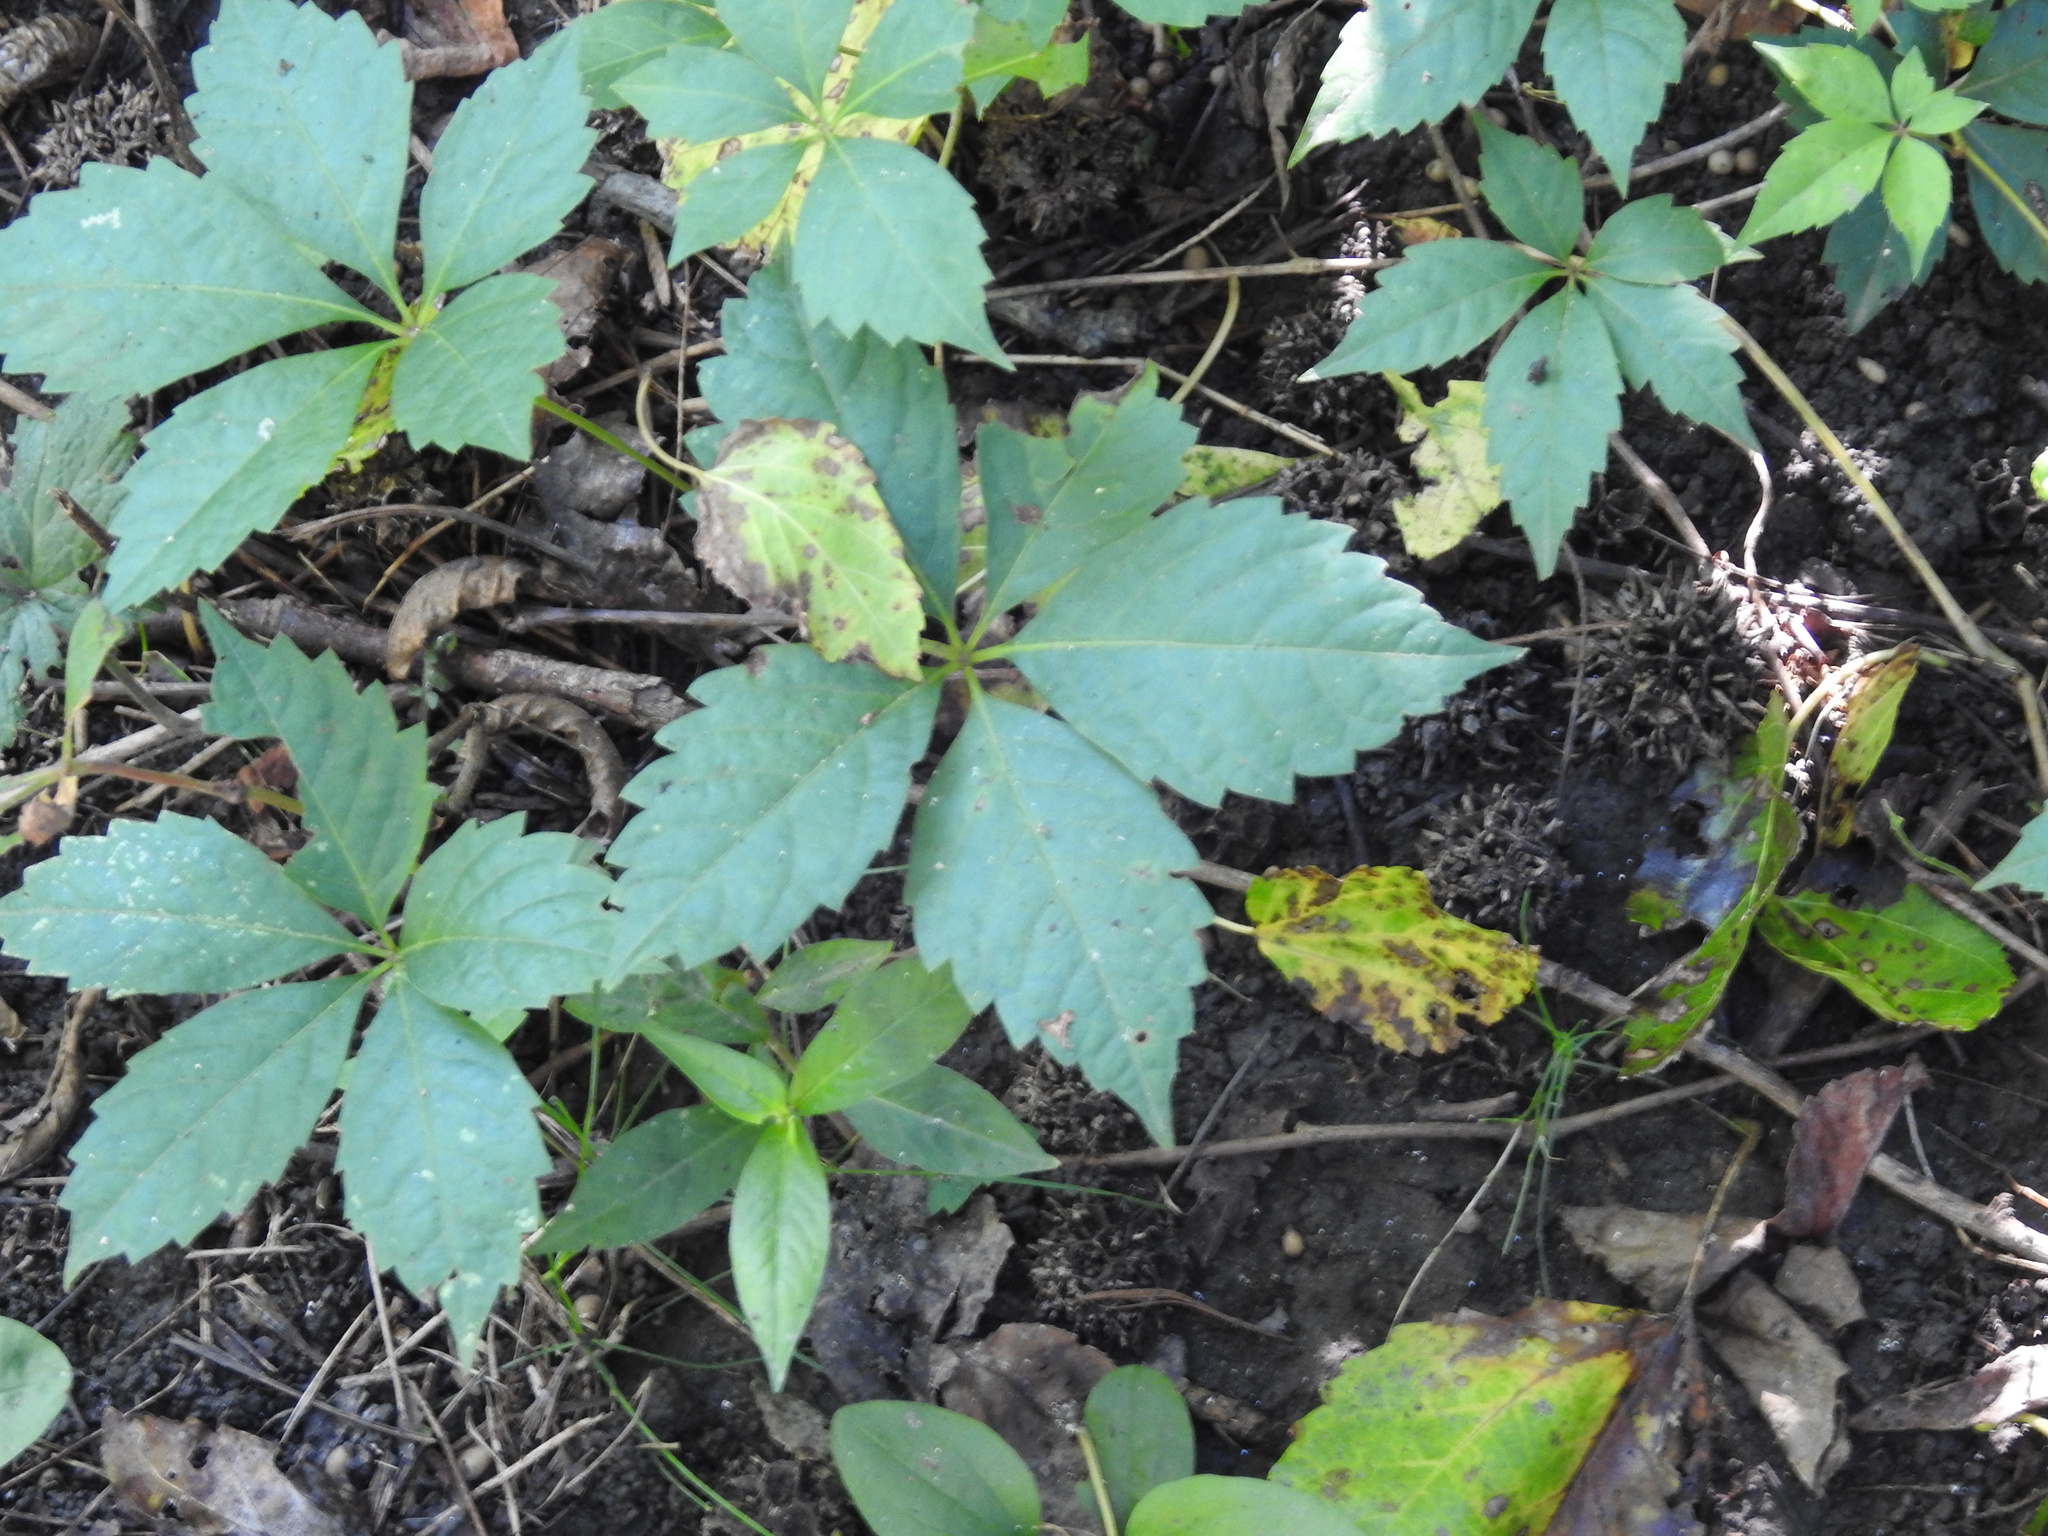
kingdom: Plantae
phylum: Tracheophyta
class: Magnoliopsida
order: Vitales
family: Vitaceae
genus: Parthenocissus
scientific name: Parthenocissus quinquefolia
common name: Virginia-creeper
